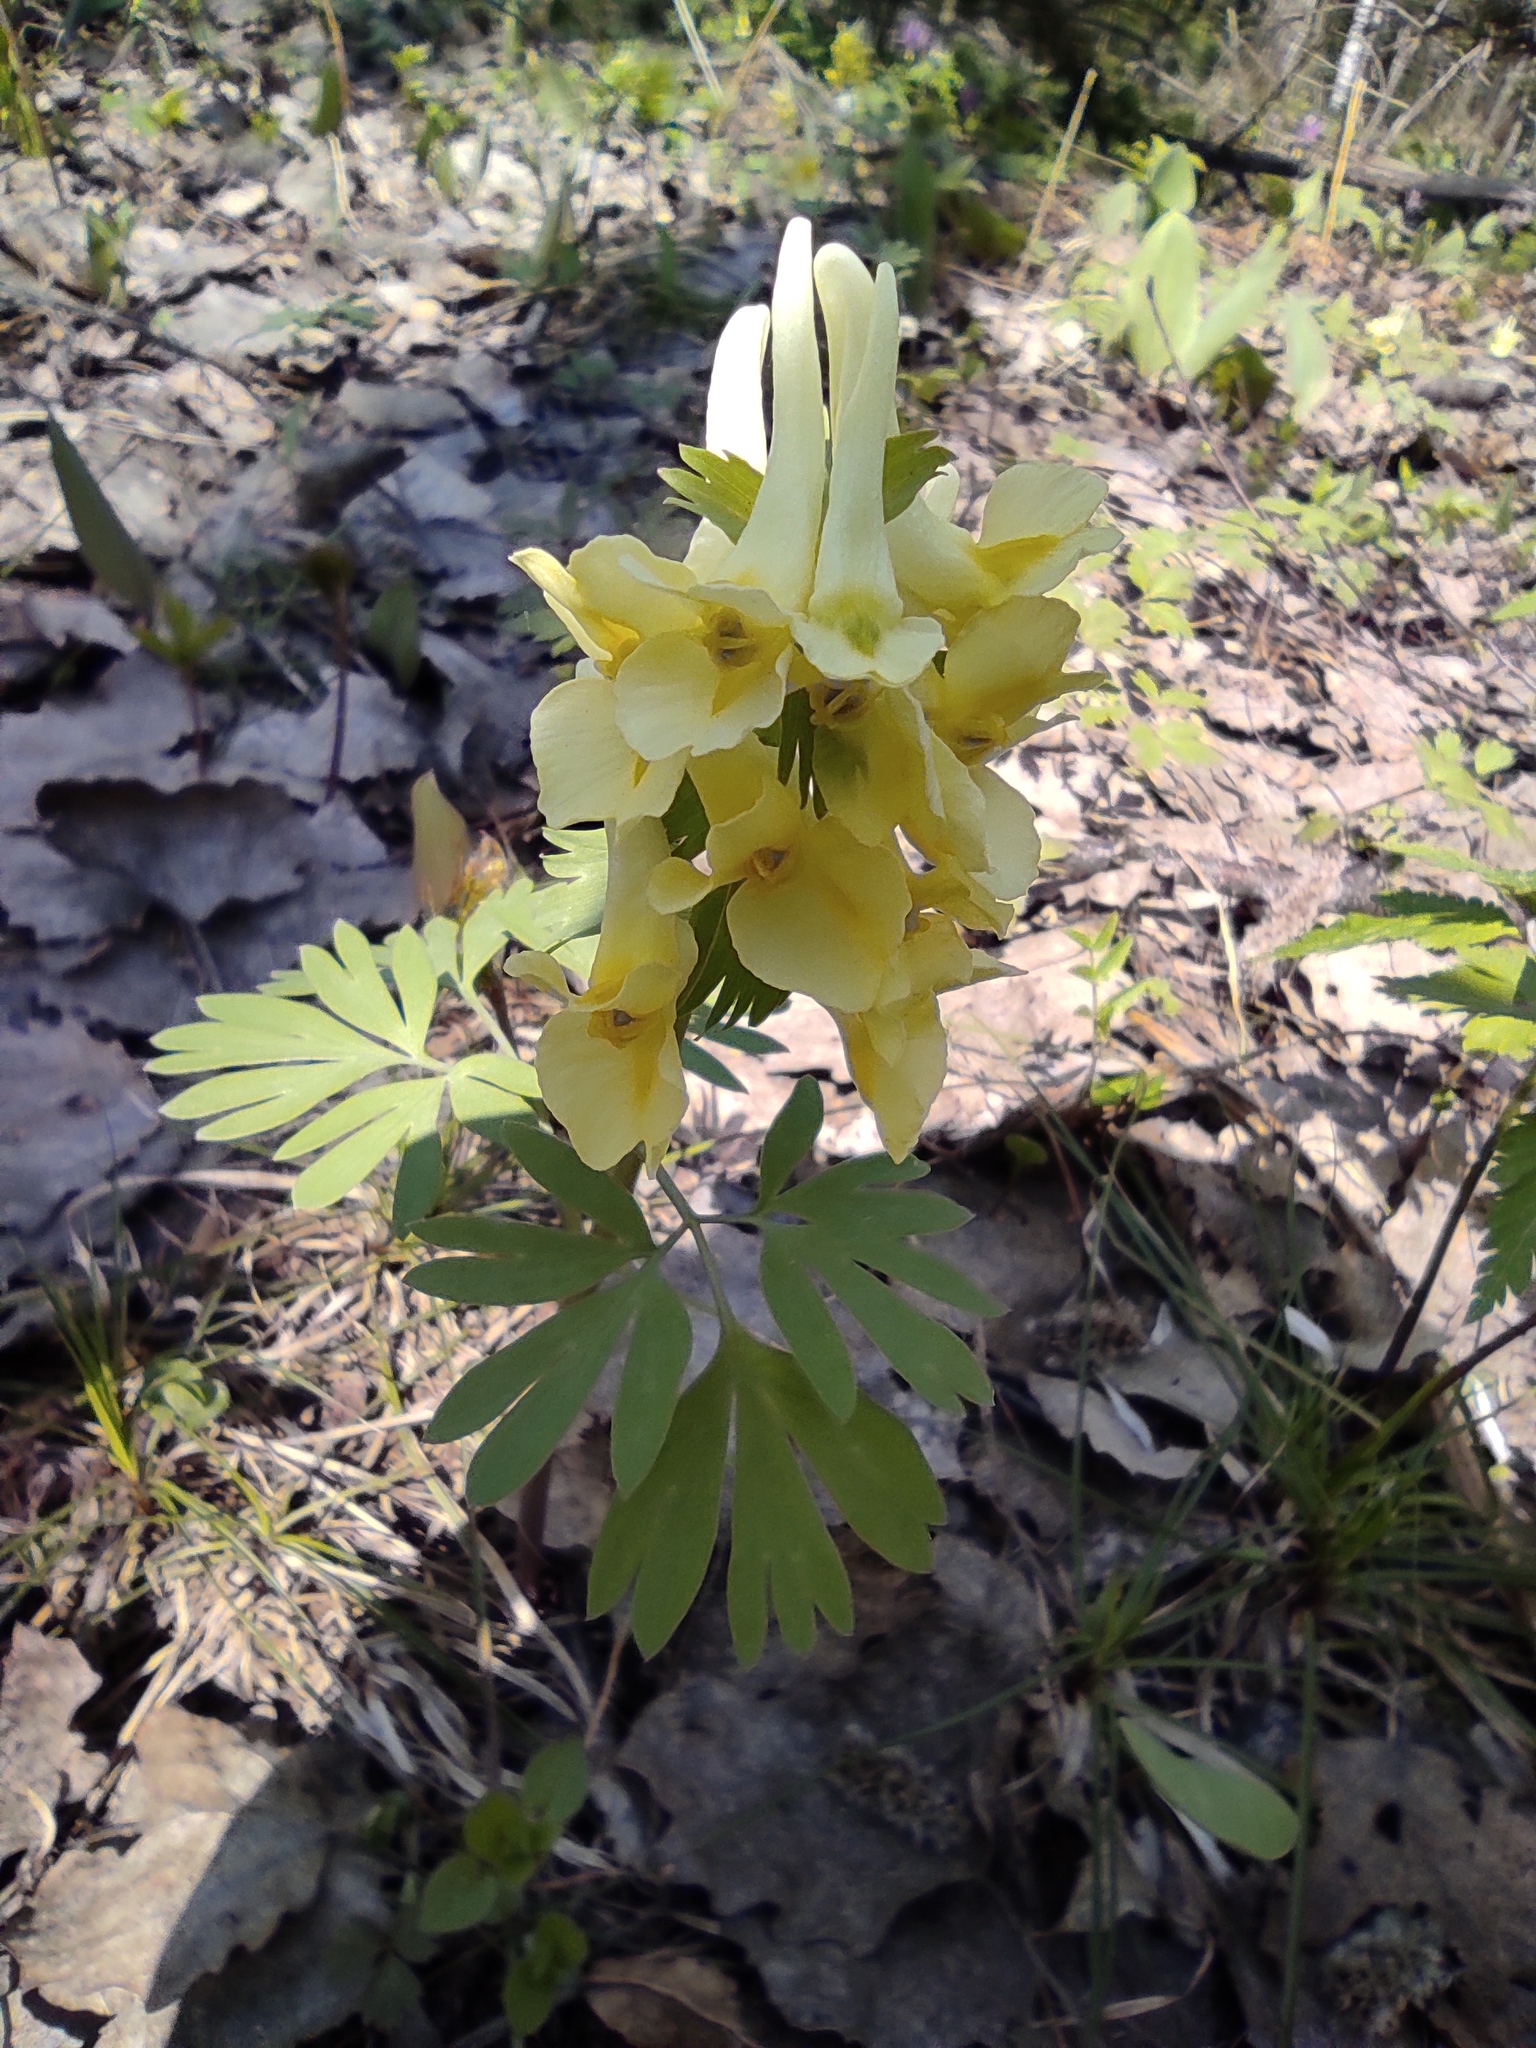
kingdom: Plantae
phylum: Tracheophyta
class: Magnoliopsida
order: Ranunculales
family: Papaveraceae
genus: Corydalis
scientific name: Corydalis bracteata
